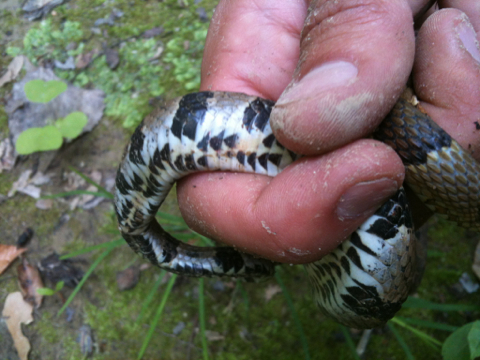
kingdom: Animalia
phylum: Chordata
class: Squamata
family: Colubridae
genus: Nerodia
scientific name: Nerodia sipedon
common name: Northern water snake
